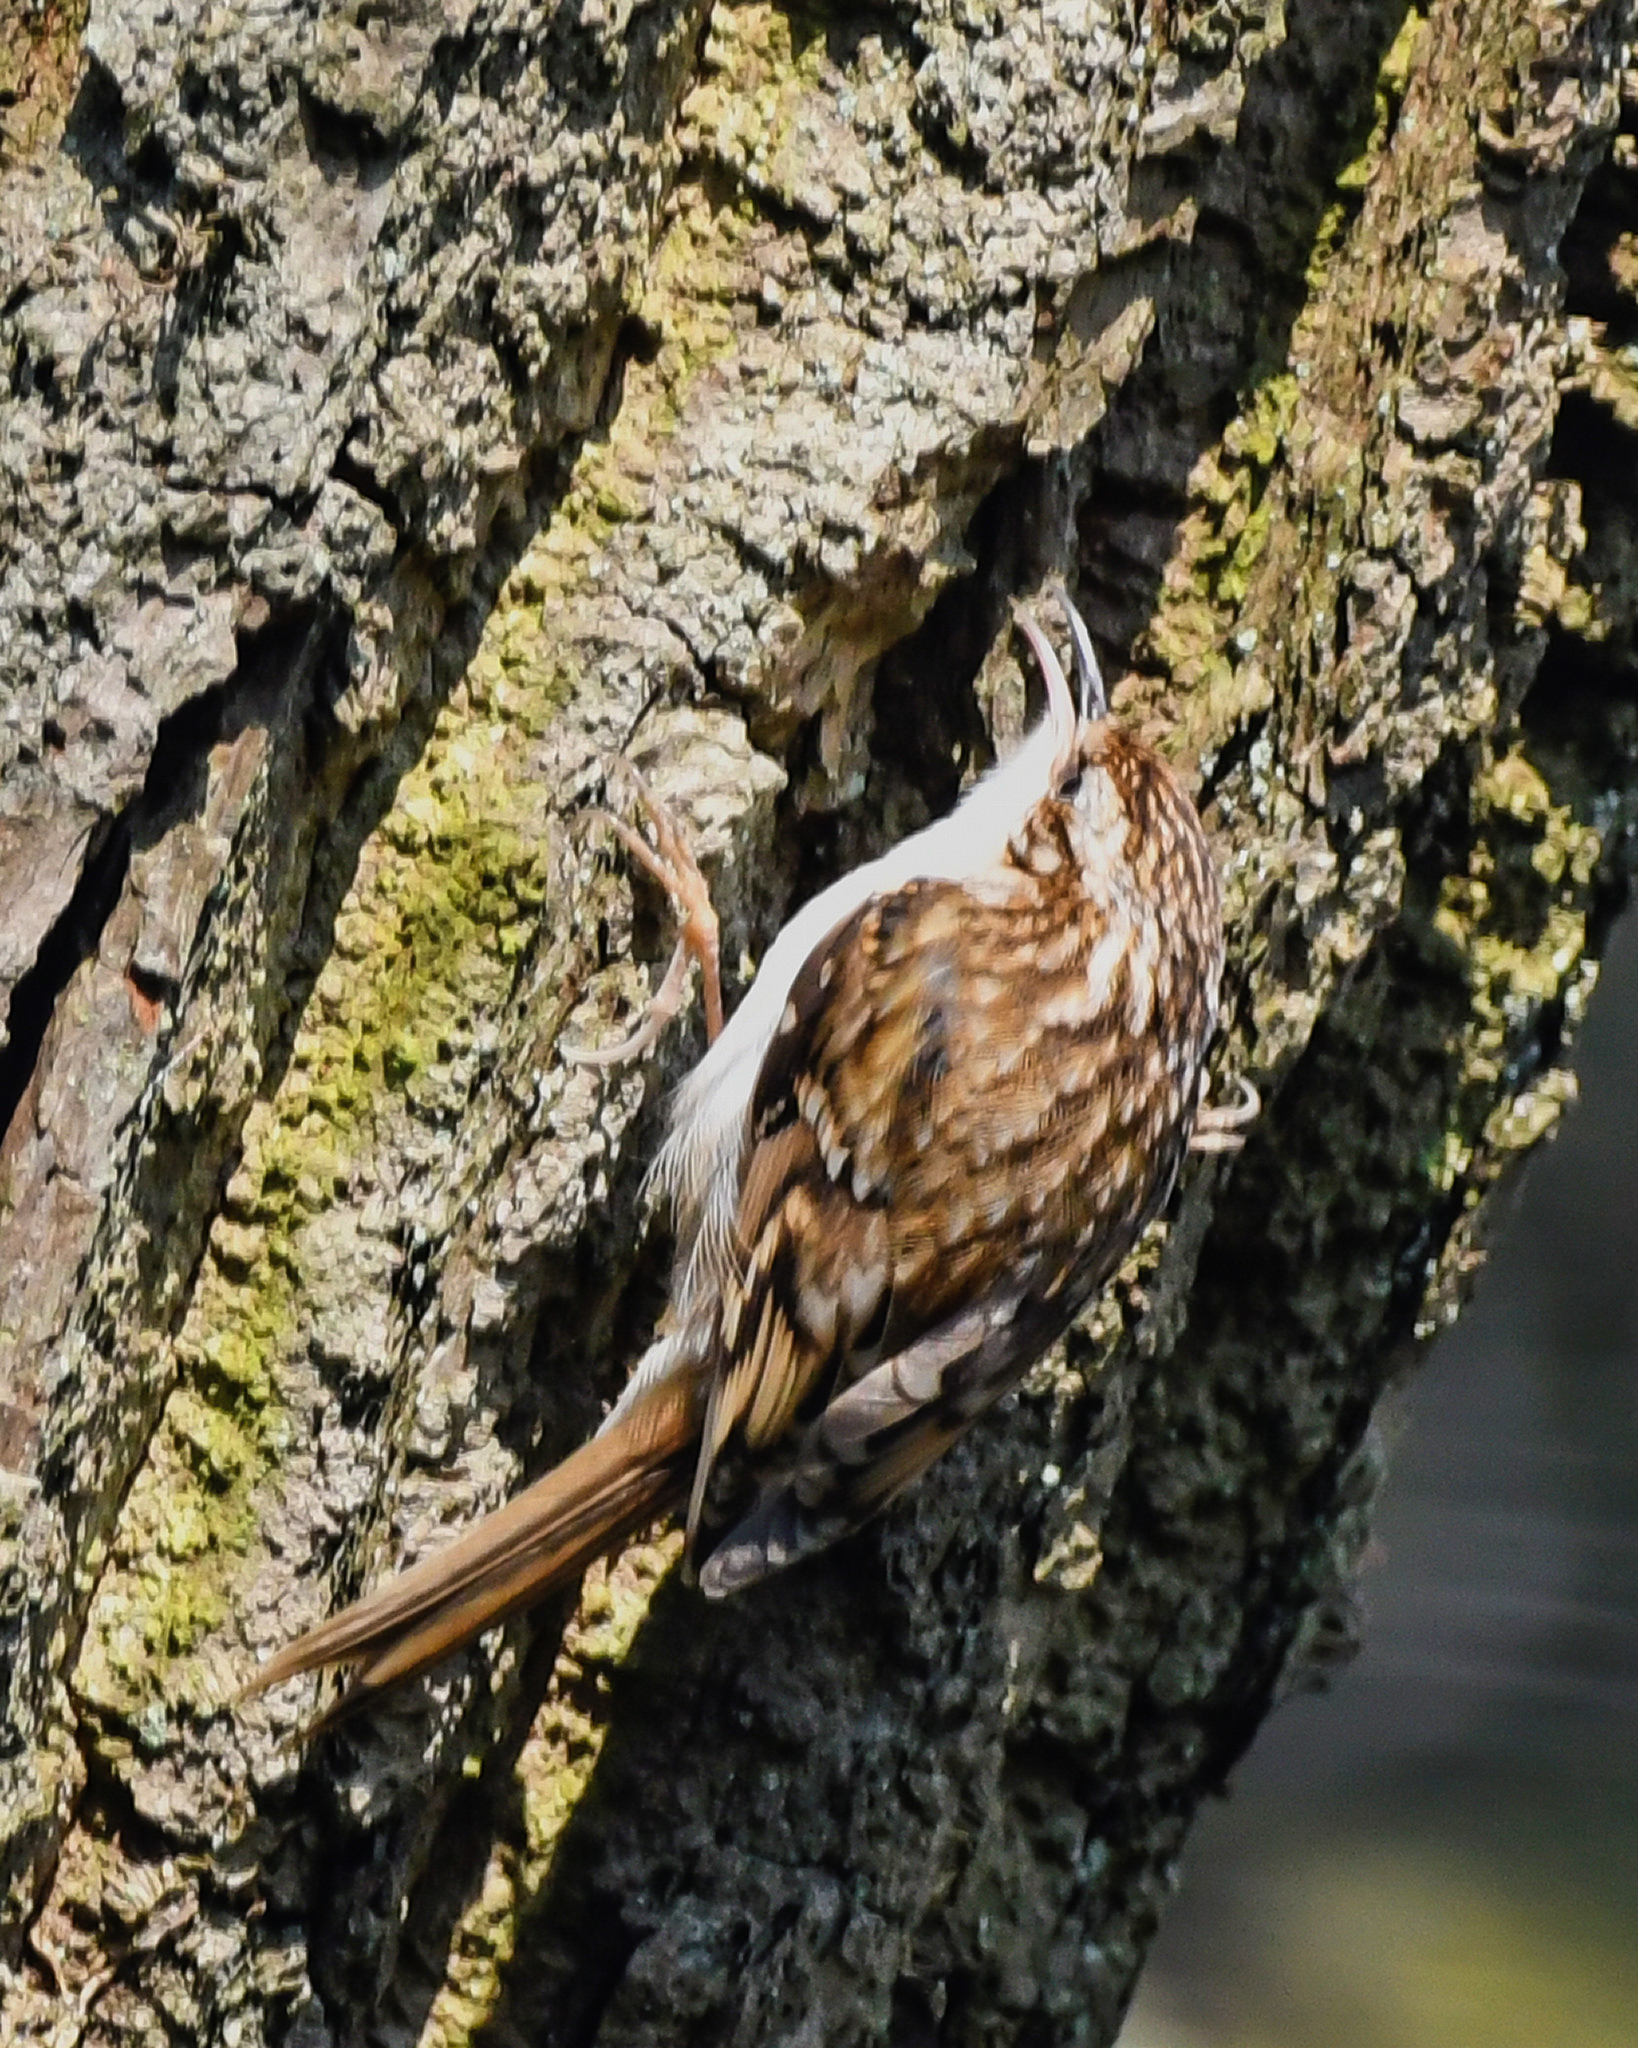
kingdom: Animalia
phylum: Chordata
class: Aves
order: Passeriformes
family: Certhiidae
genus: Certhia
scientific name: Certhia familiaris
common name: Eurasian treecreeper
